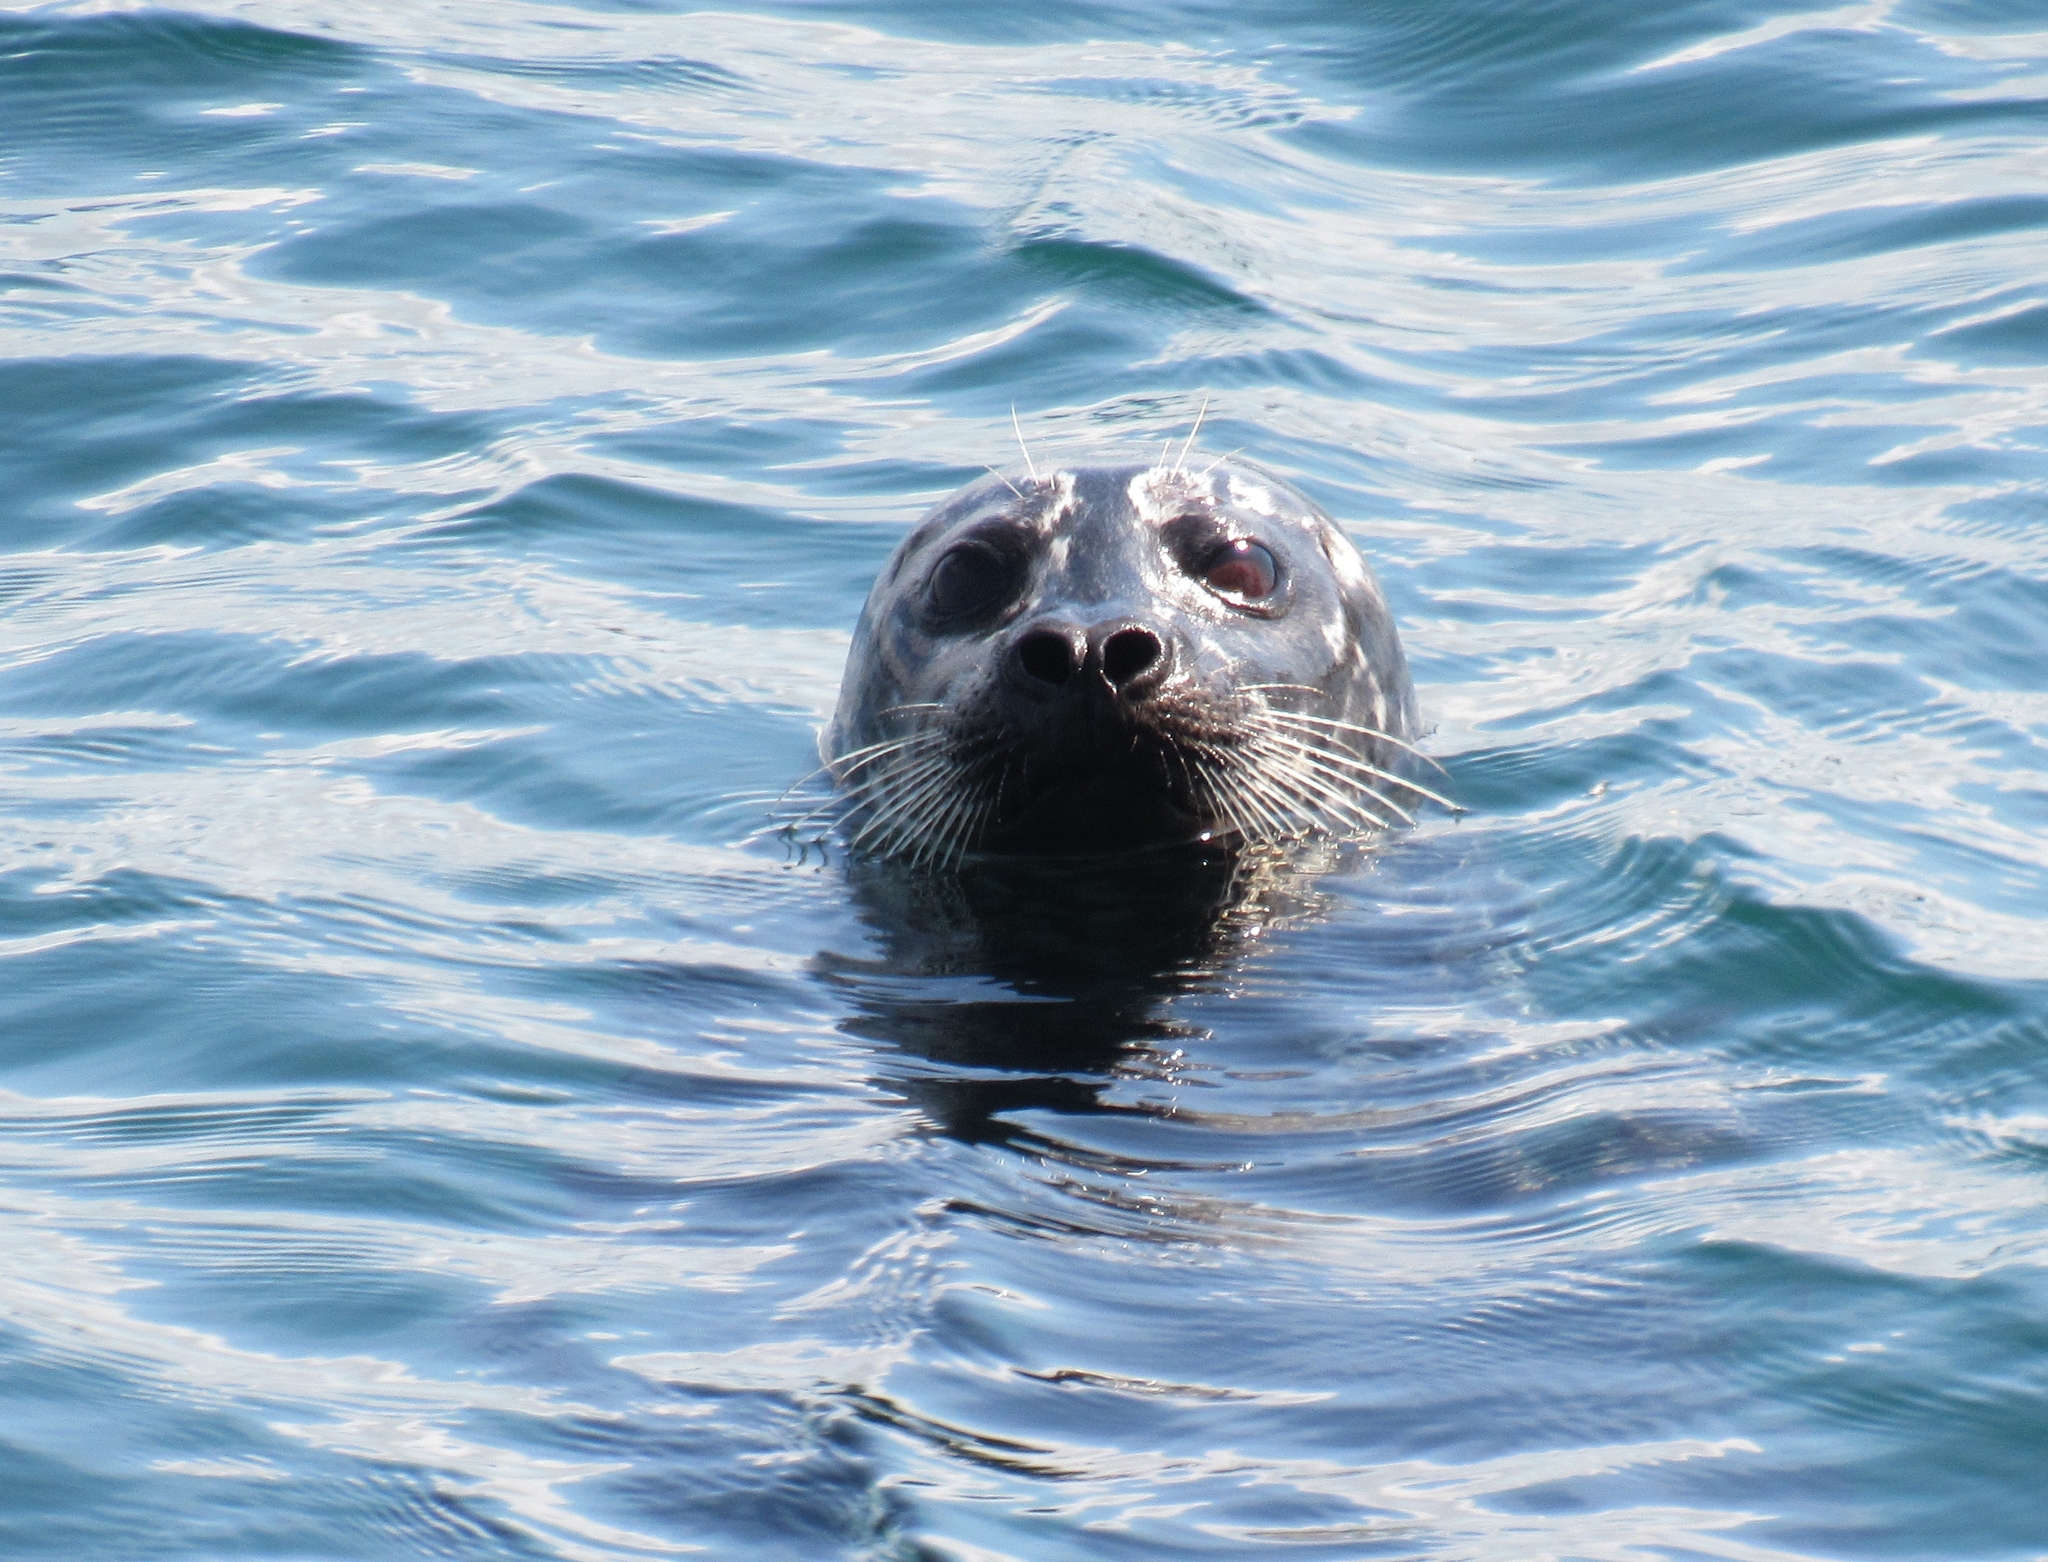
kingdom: Animalia
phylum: Chordata
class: Mammalia
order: Carnivora
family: Phocidae
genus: Phoca
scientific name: Phoca vitulina
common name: Harbor seal
